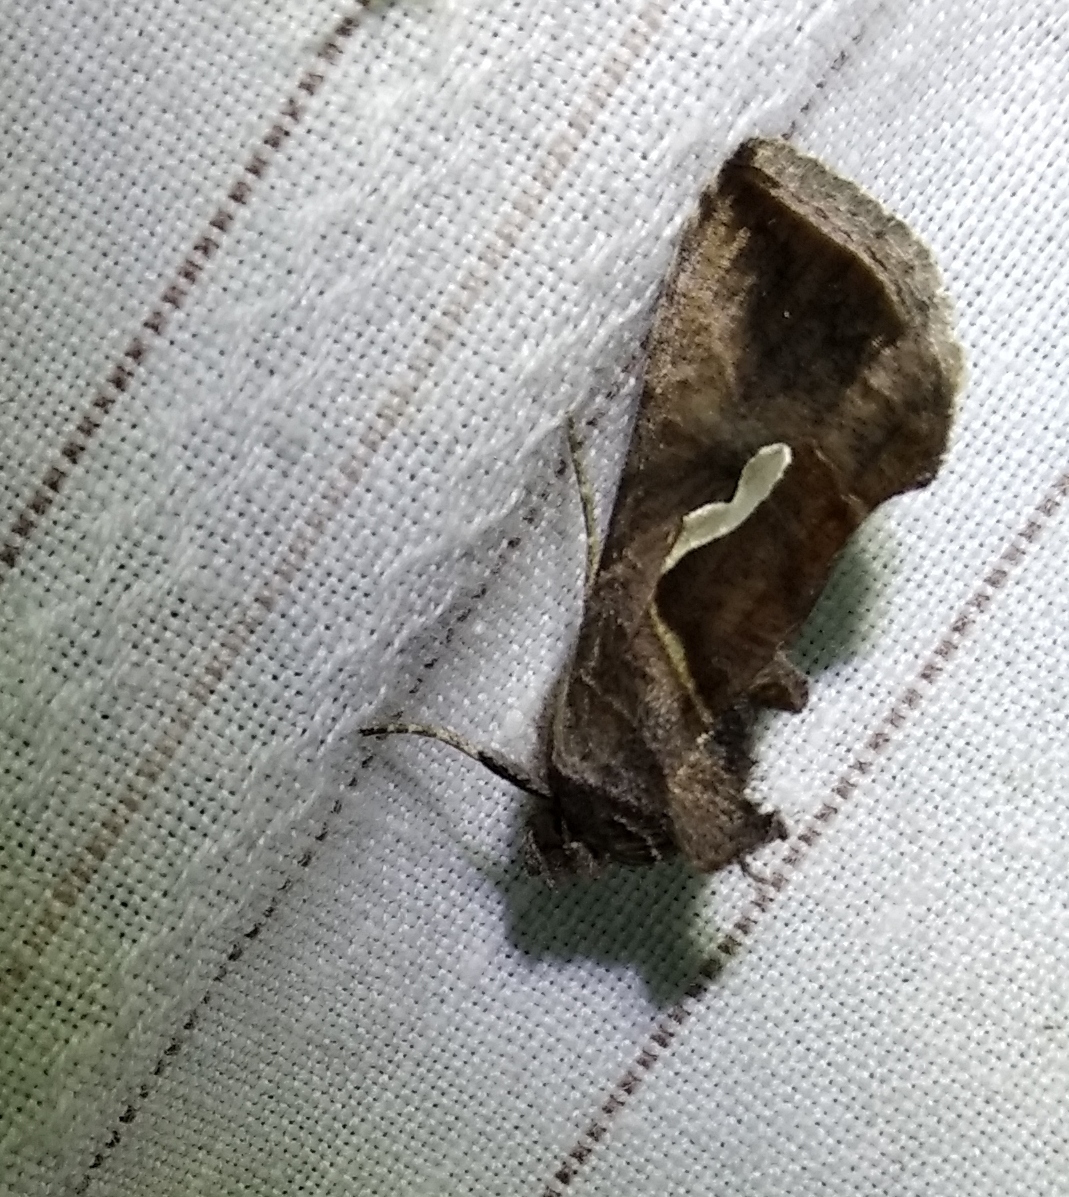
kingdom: Animalia
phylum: Arthropoda
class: Insecta
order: Lepidoptera
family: Noctuidae
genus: Macdunnoughia
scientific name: Macdunnoughia confusa
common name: Dewick's plusia
